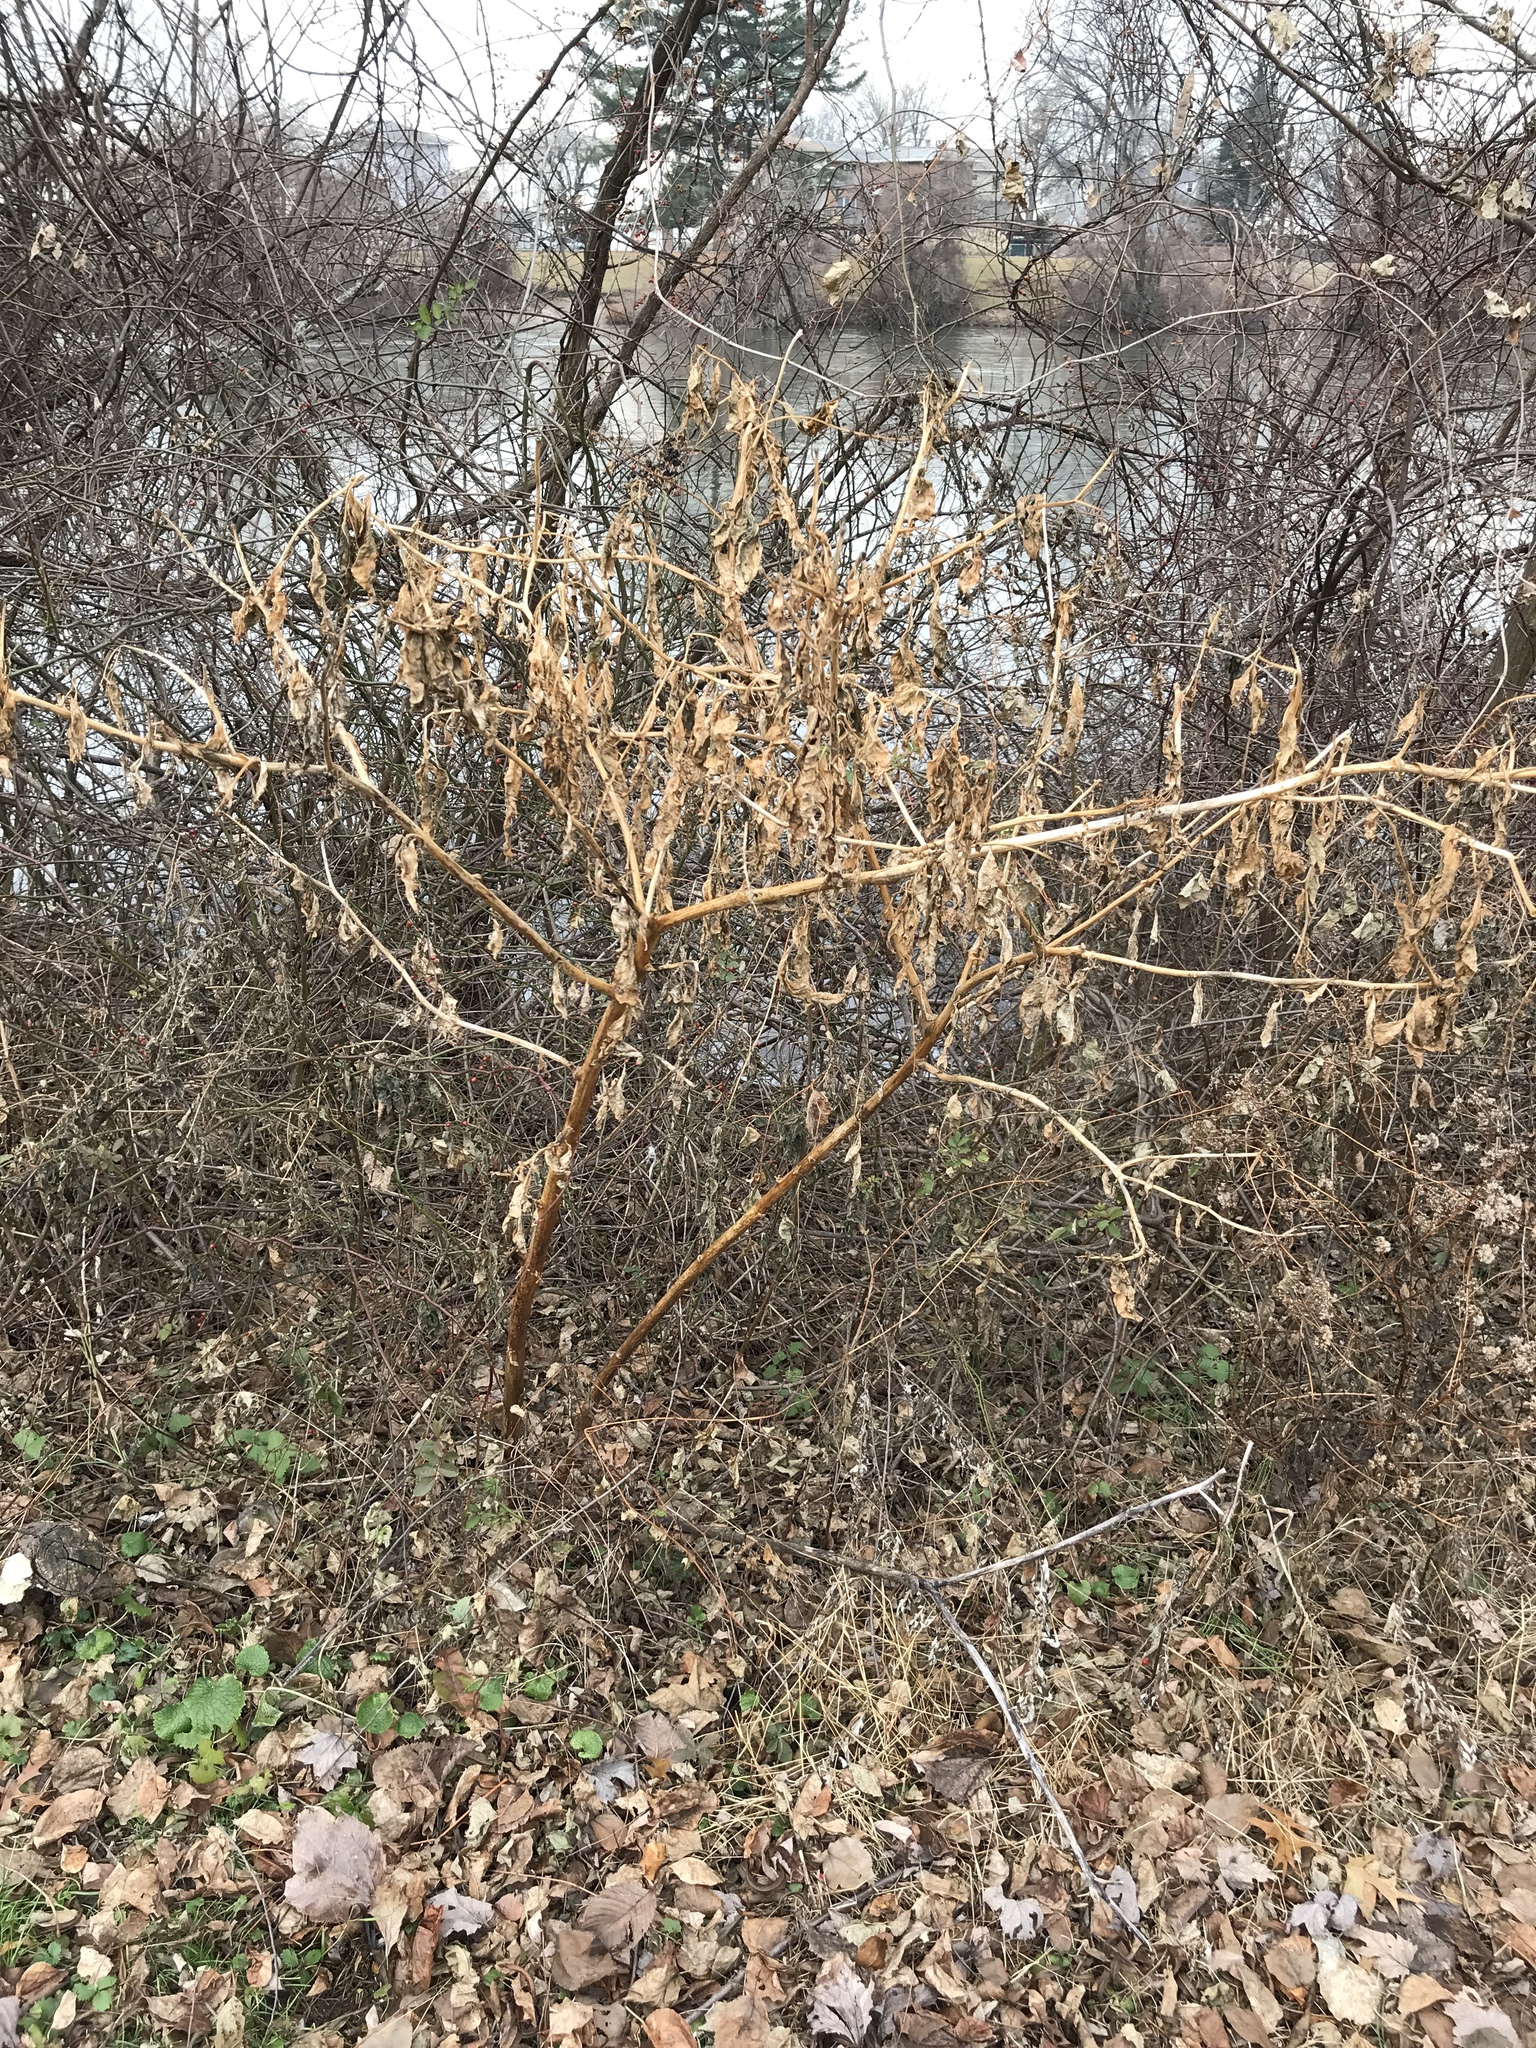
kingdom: Plantae
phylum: Tracheophyta
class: Magnoliopsida
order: Caryophyllales
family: Phytolaccaceae
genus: Phytolacca
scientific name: Phytolacca americana
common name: American pokeweed
